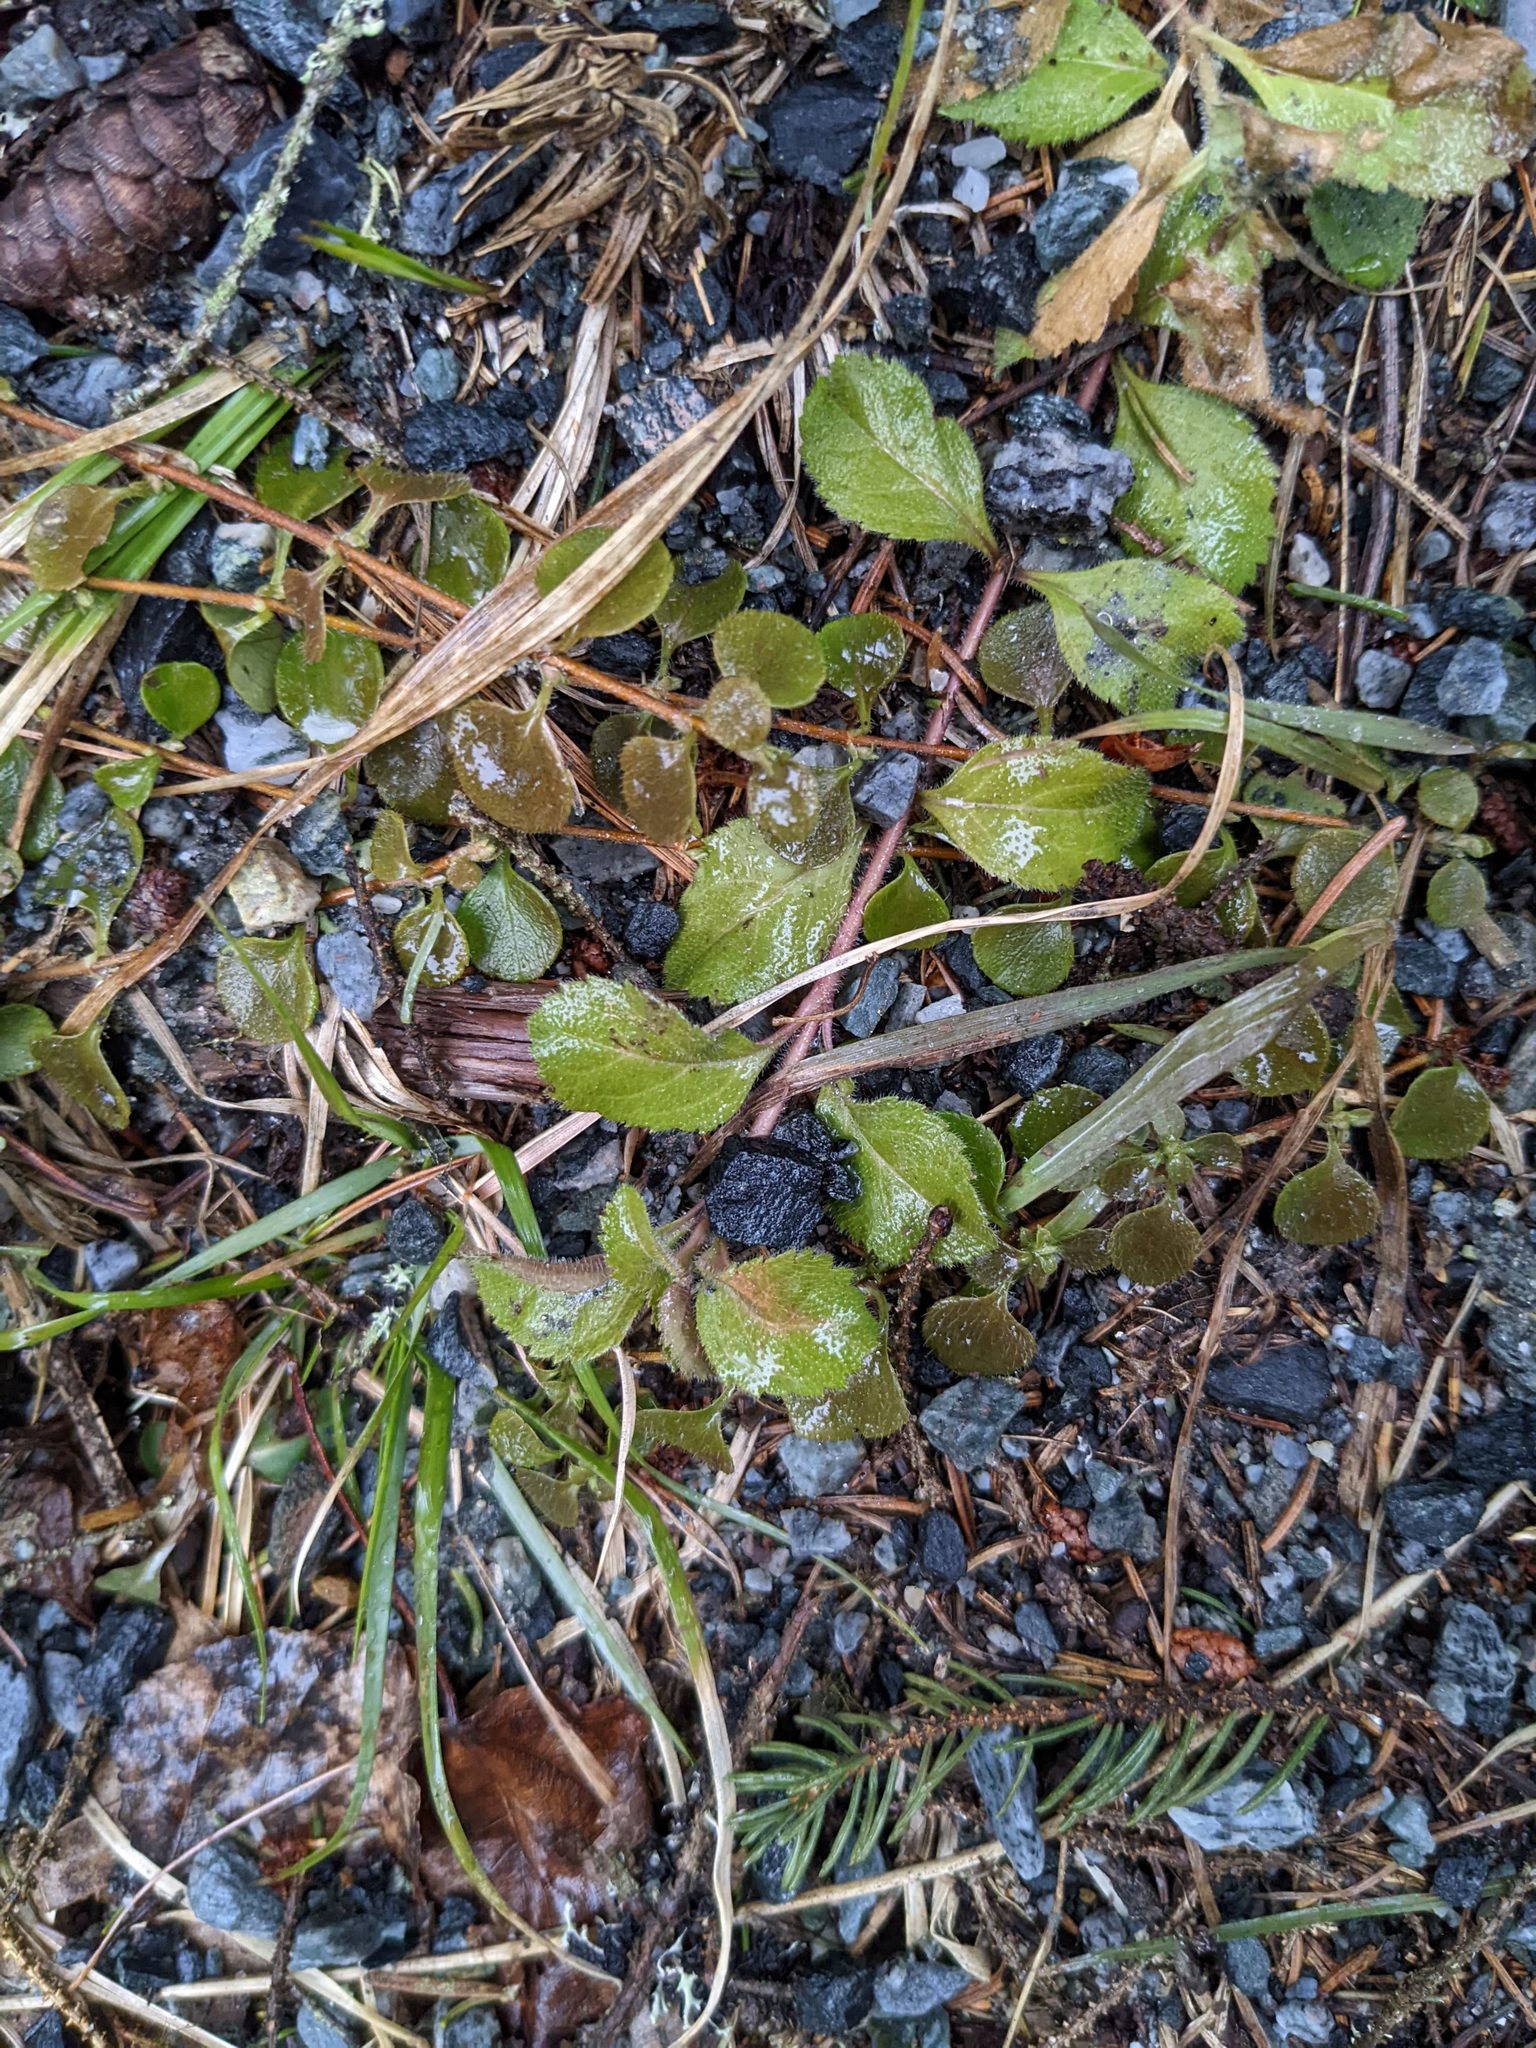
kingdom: Plantae
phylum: Tracheophyta
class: Magnoliopsida
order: Lamiales
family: Plantaginaceae
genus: Veronica
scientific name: Veronica officinalis
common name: Common speedwell
